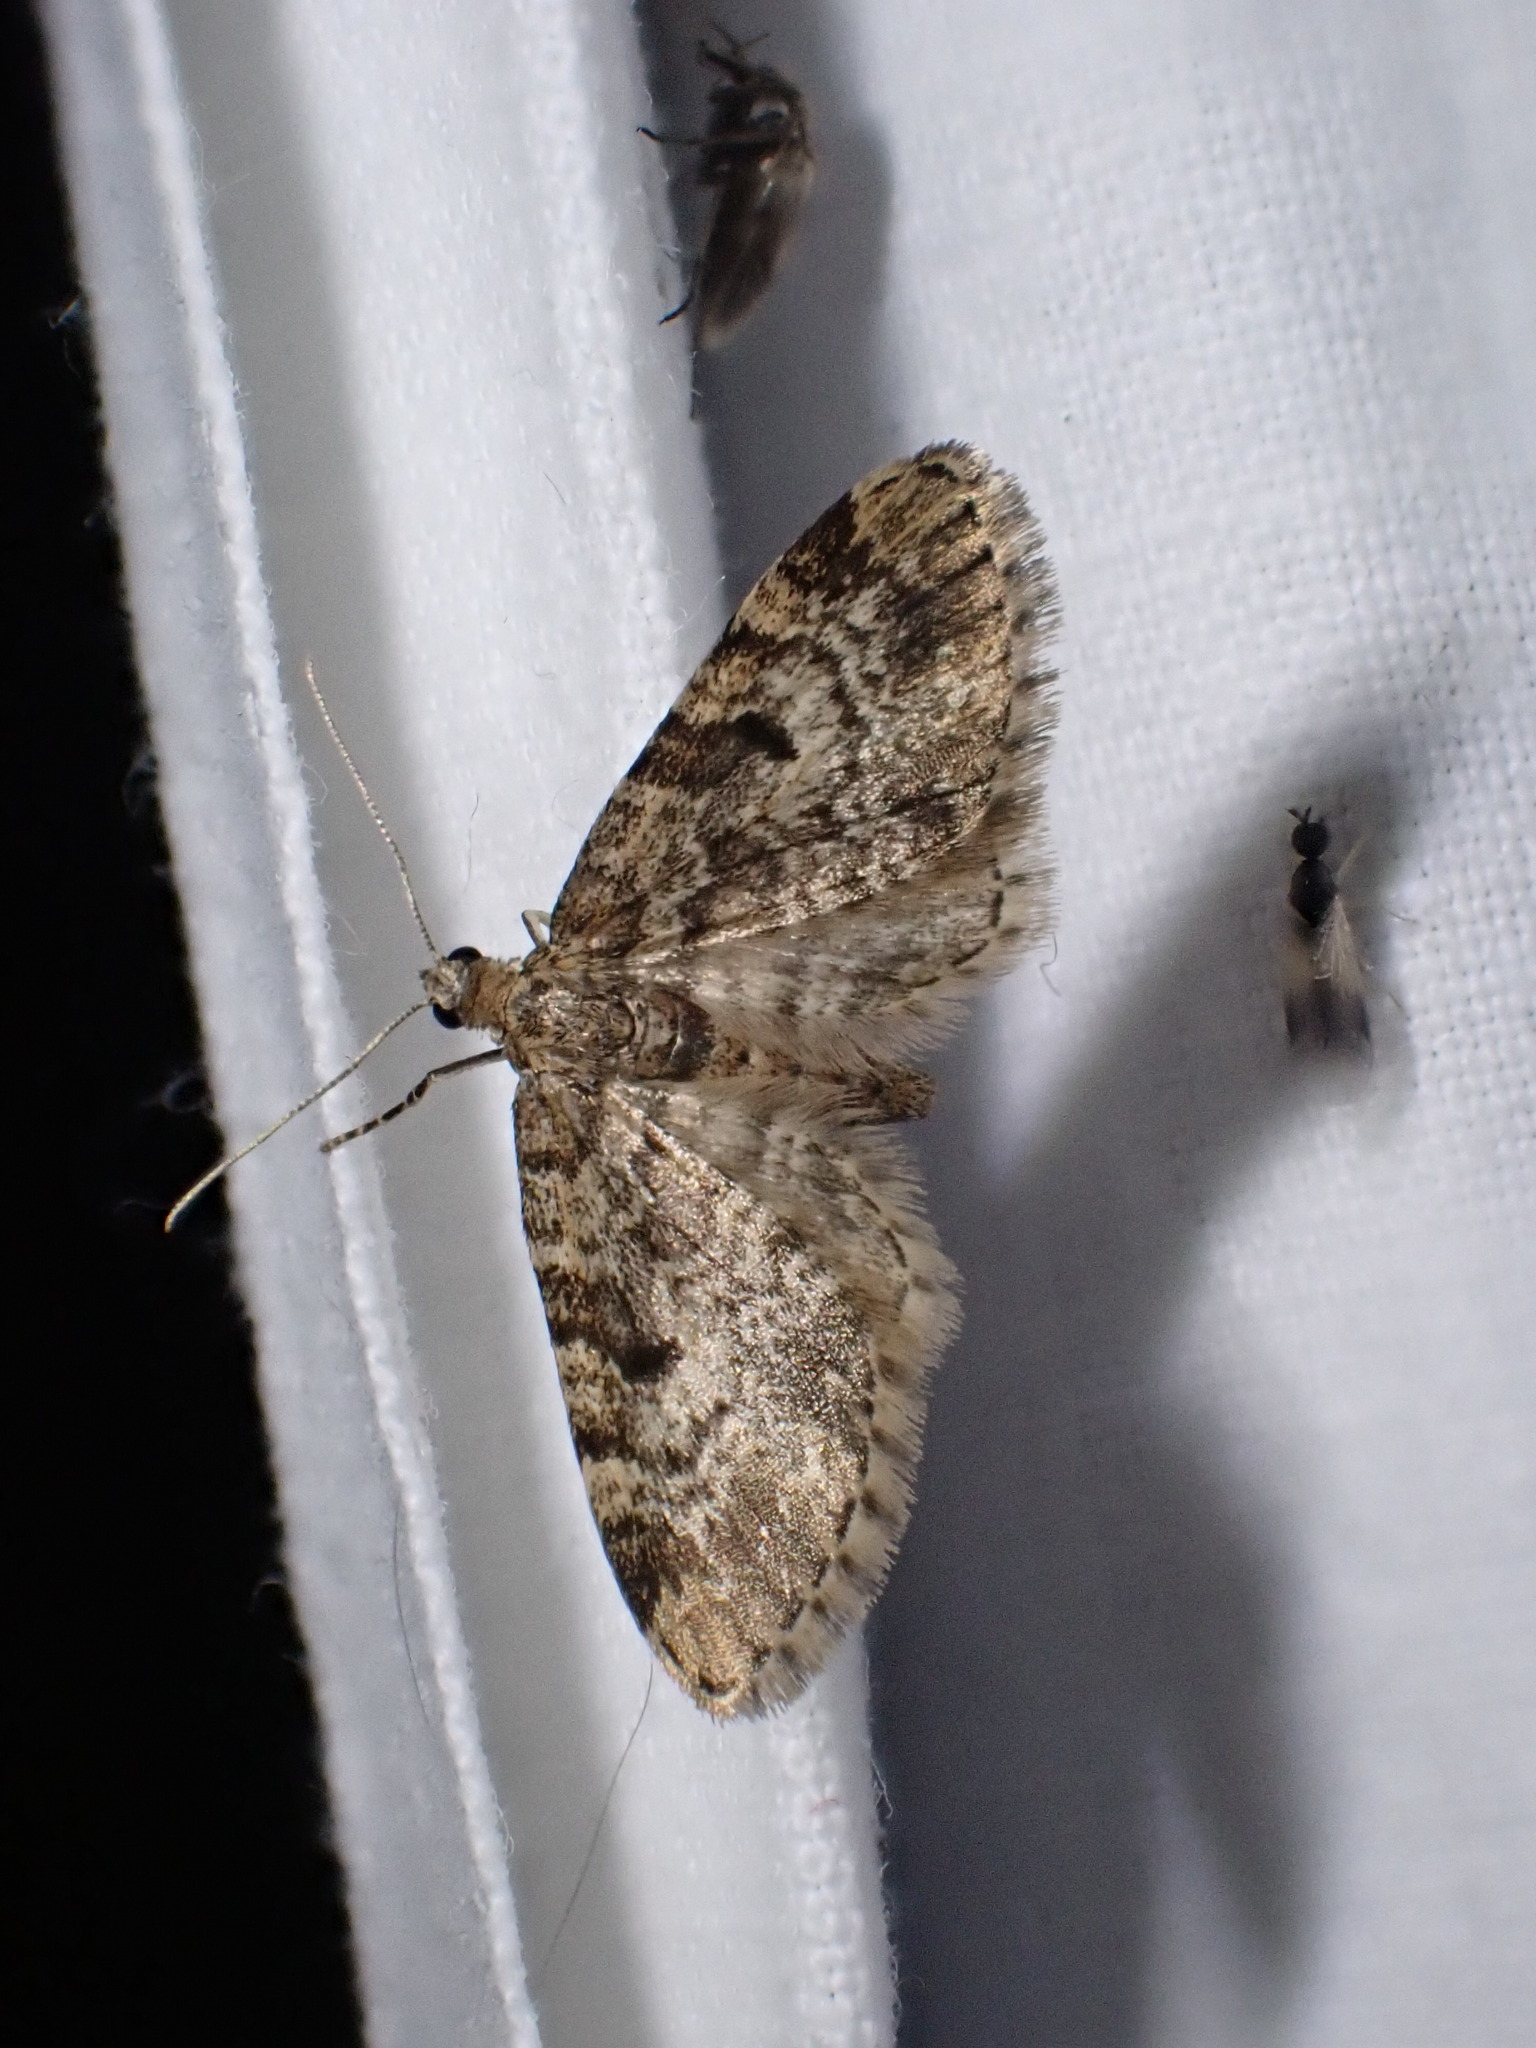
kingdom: Animalia
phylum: Arthropoda
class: Insecta
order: Lepidoptera
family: Geometridae
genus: Eupithecia
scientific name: Eupithecia tantillaria
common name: Dwarf pug
